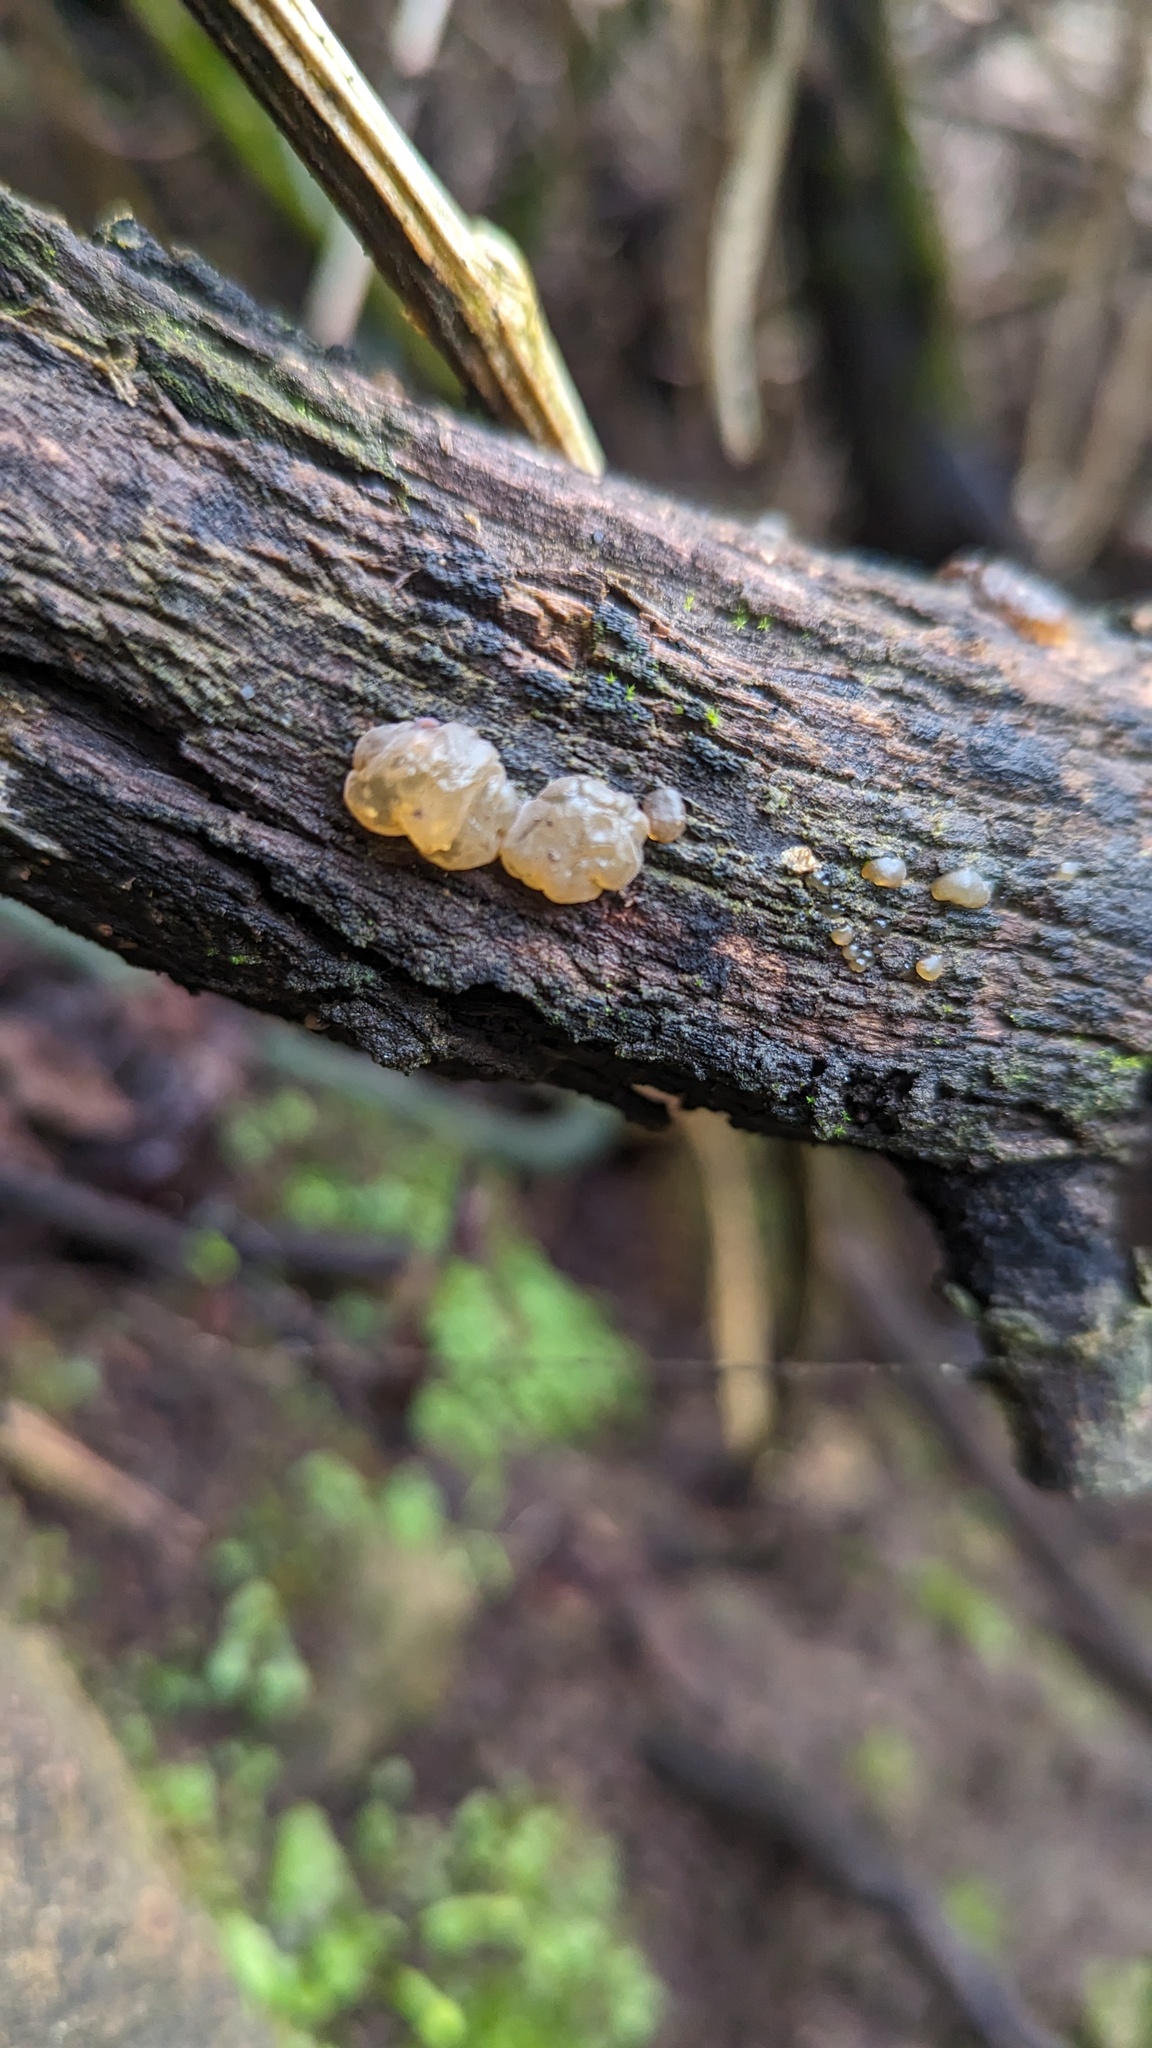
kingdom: Fungi
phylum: Basidiomycota
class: Agaricomycetes
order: Auriculariales
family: Hyaloriaceae
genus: Myxarium
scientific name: Myxarium nucleatum
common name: Crystal brain fungus
